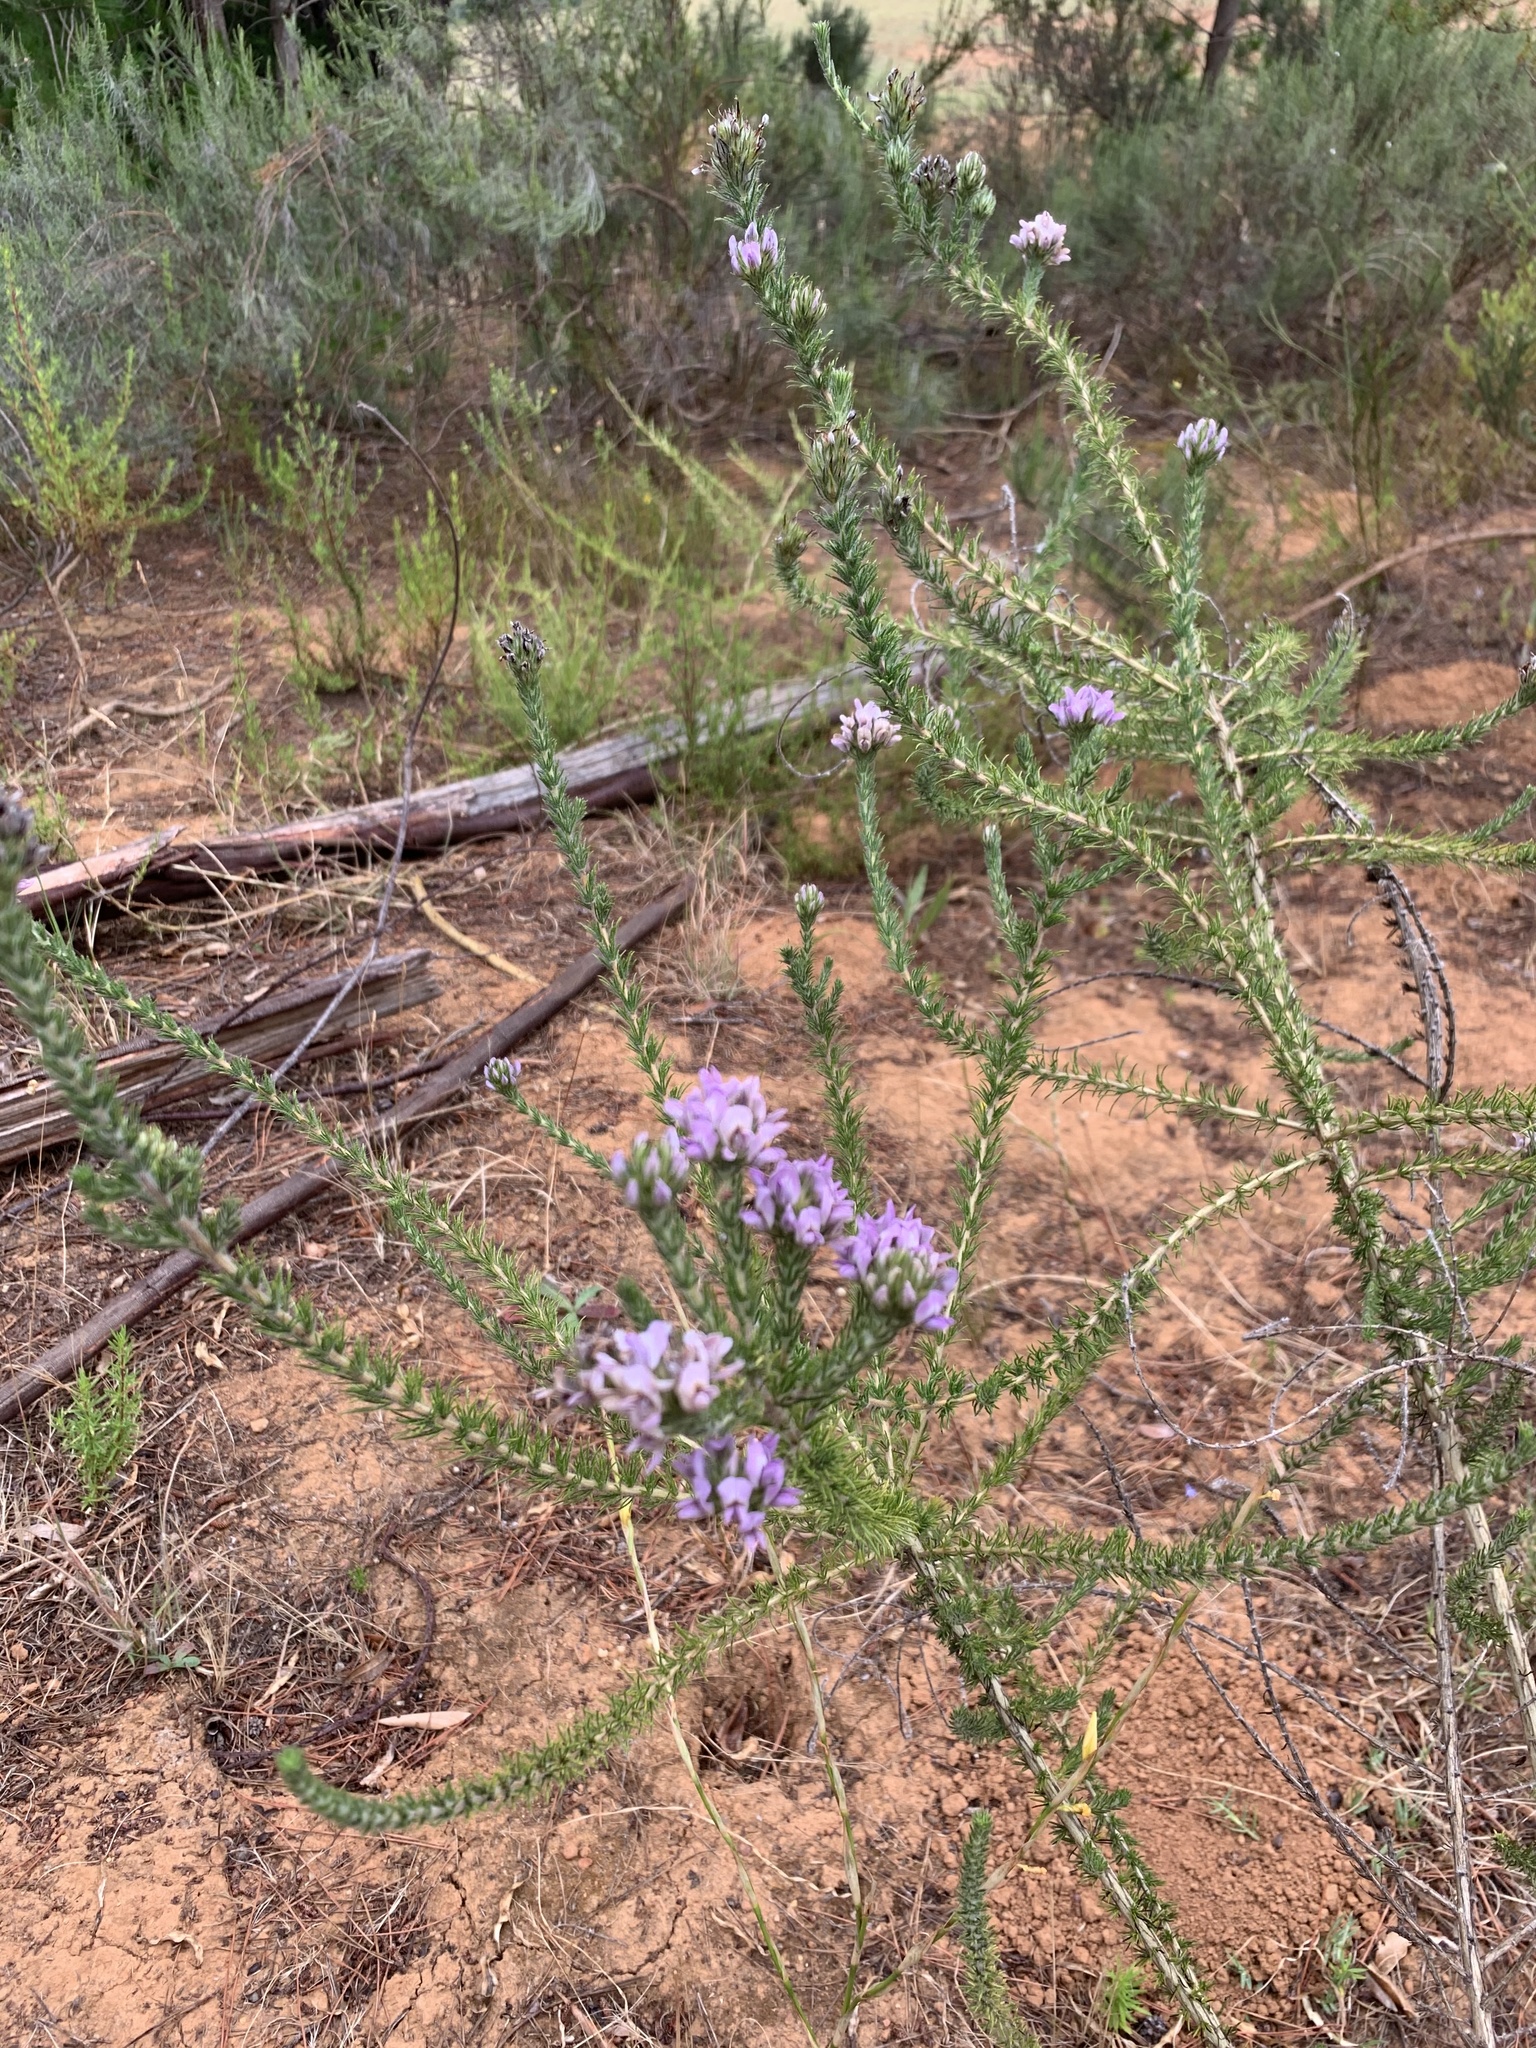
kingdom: Plantae
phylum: Tracheophyta
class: Magnoliopsida
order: Fabales
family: Fabaceae
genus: Aspalathus
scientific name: Aspalathus nigra
